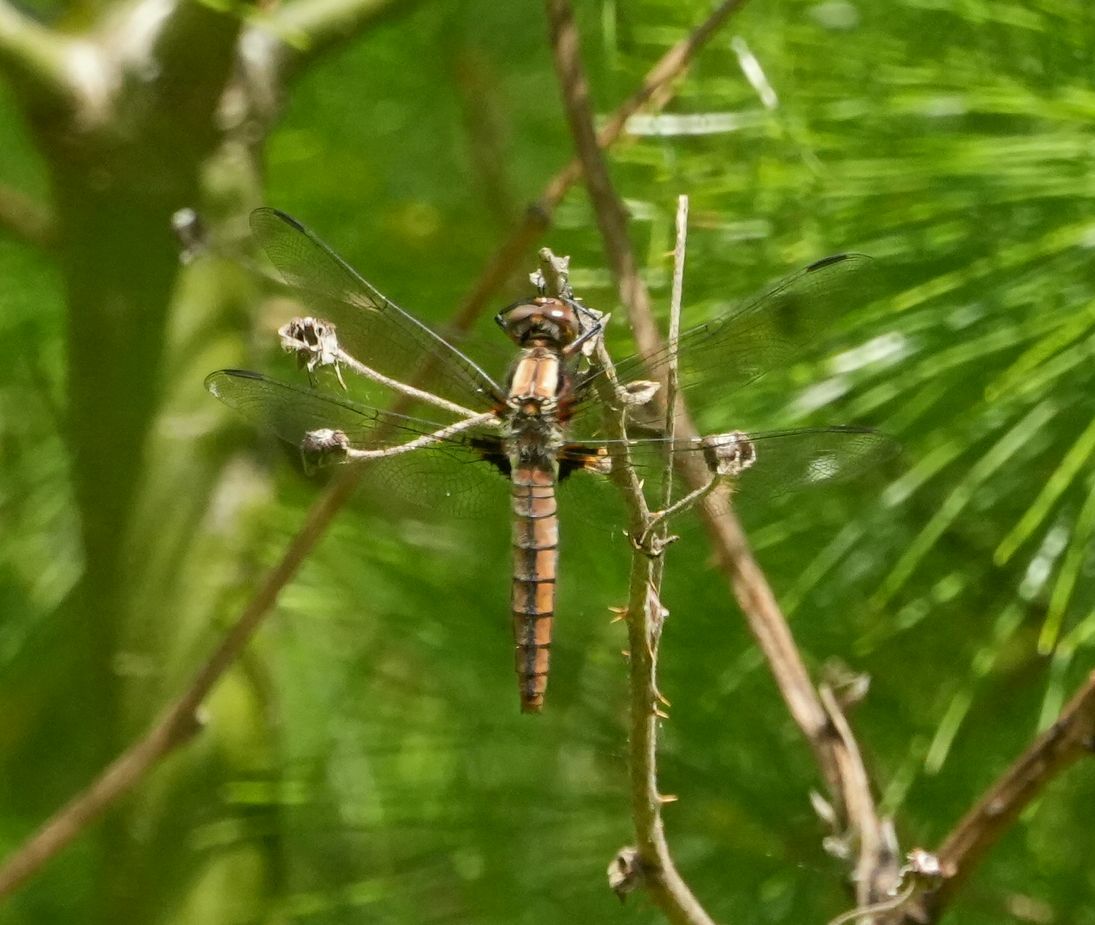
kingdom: Animalia
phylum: Arthropoda
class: Insecta
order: Odonata
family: Libellulidae
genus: Ladona
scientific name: Ladona julia
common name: Chalk-fronted corporal
